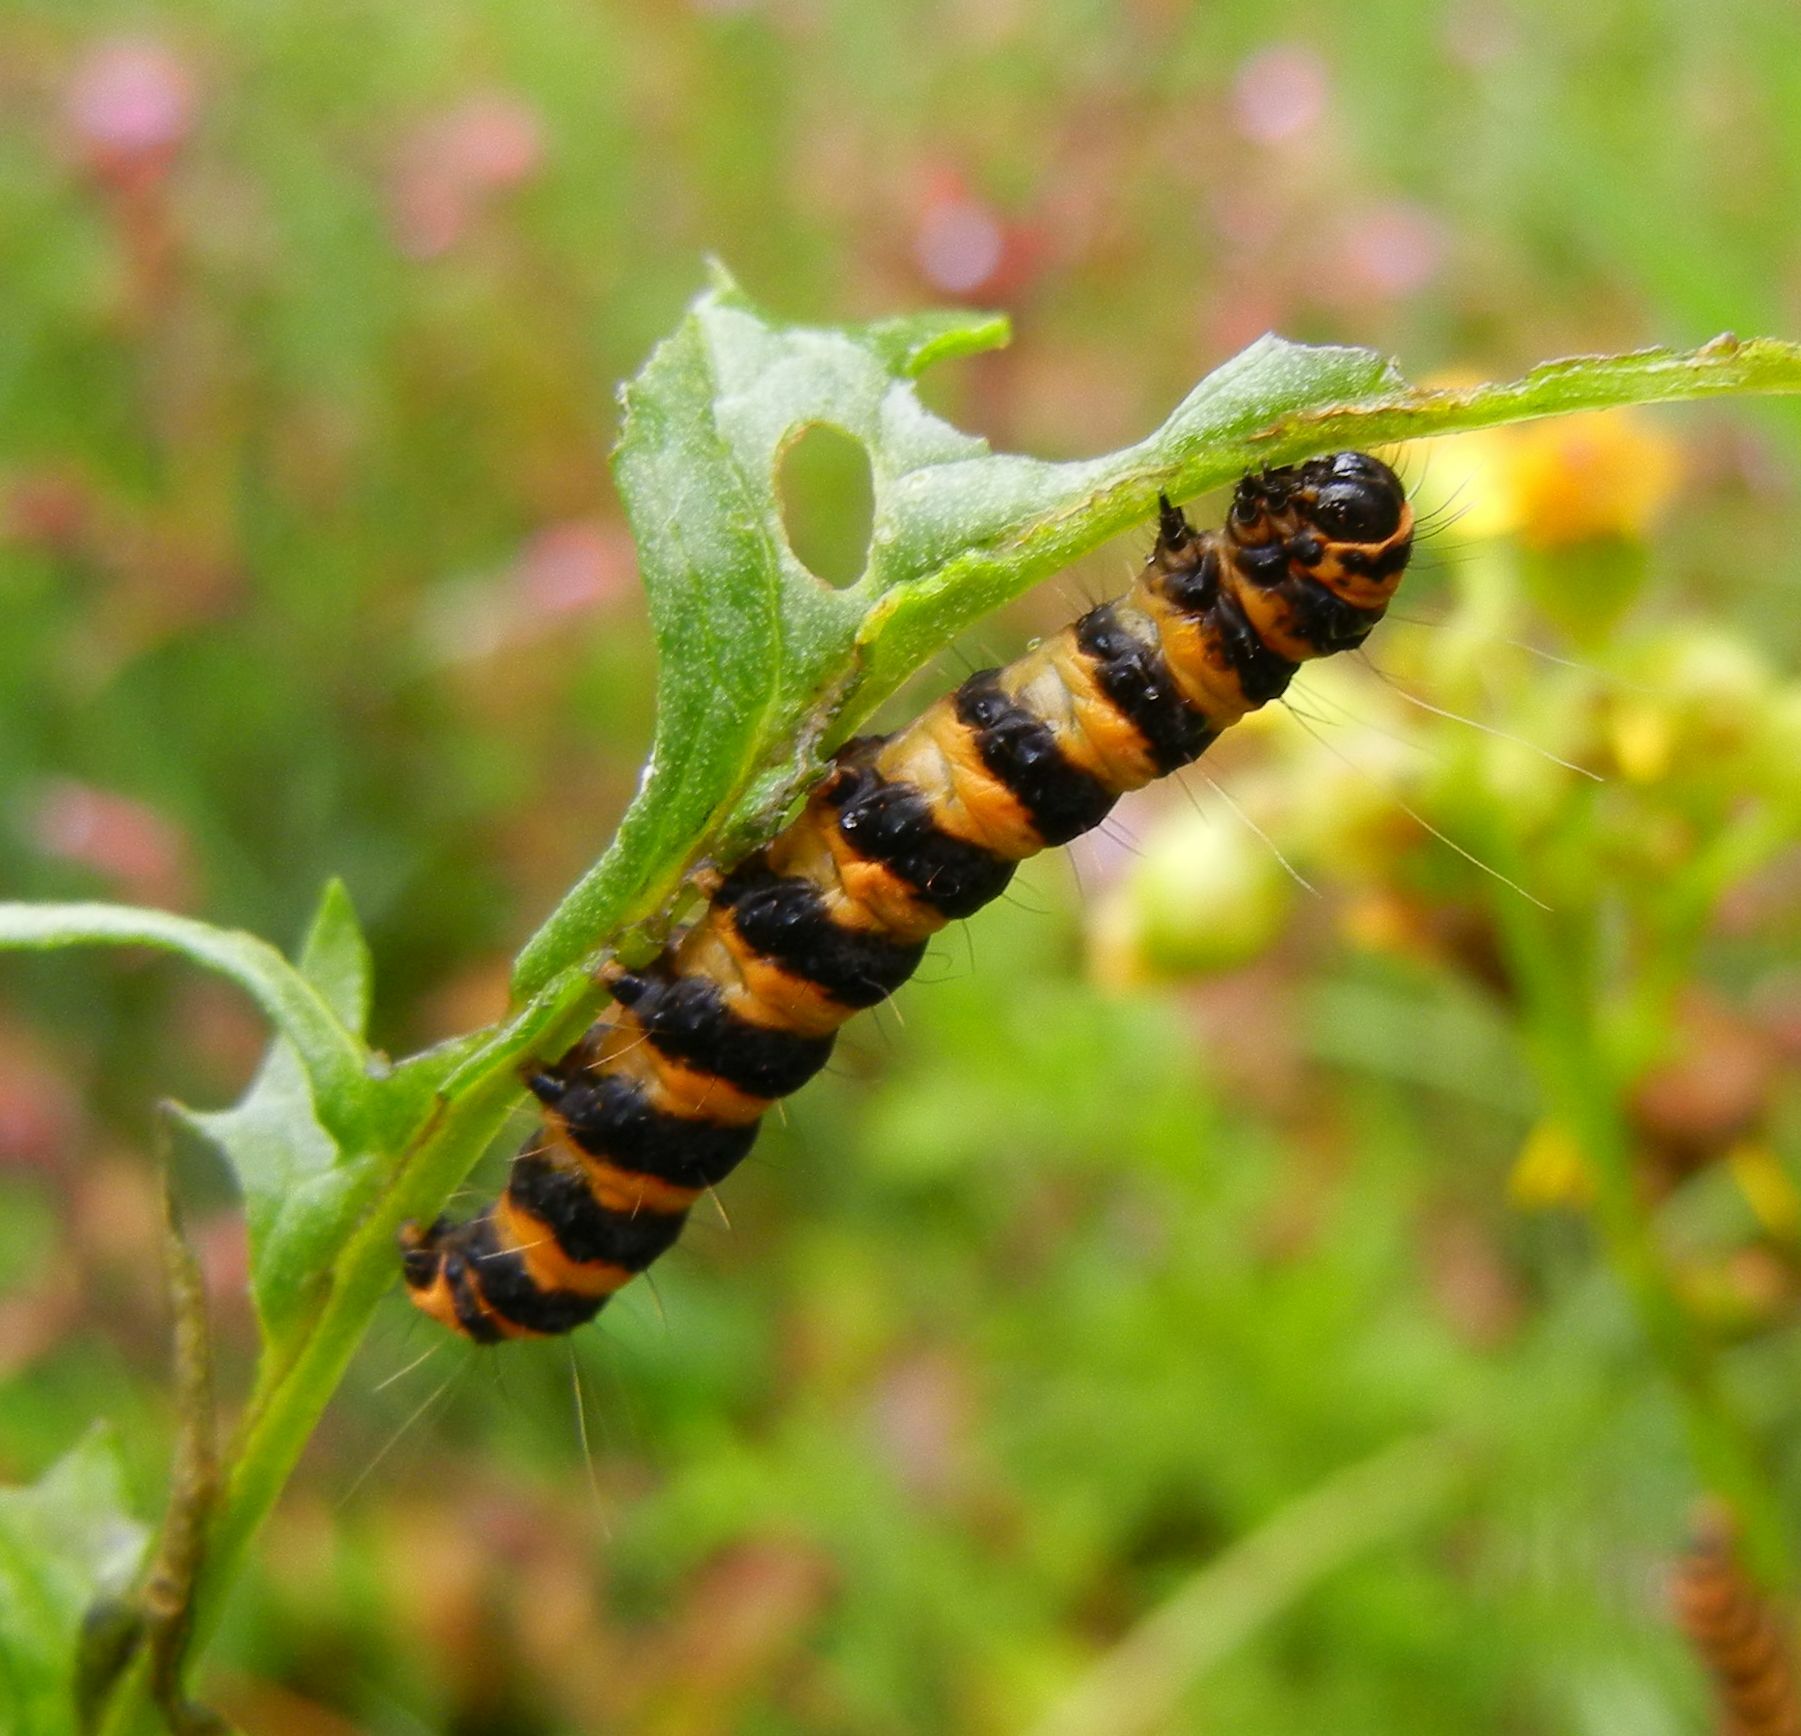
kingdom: Animalia
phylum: Arthropoda
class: Insecta
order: Lepidoptera
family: Erebidae
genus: Tyria
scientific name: Tyria jacobaeae
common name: Cinnabar
